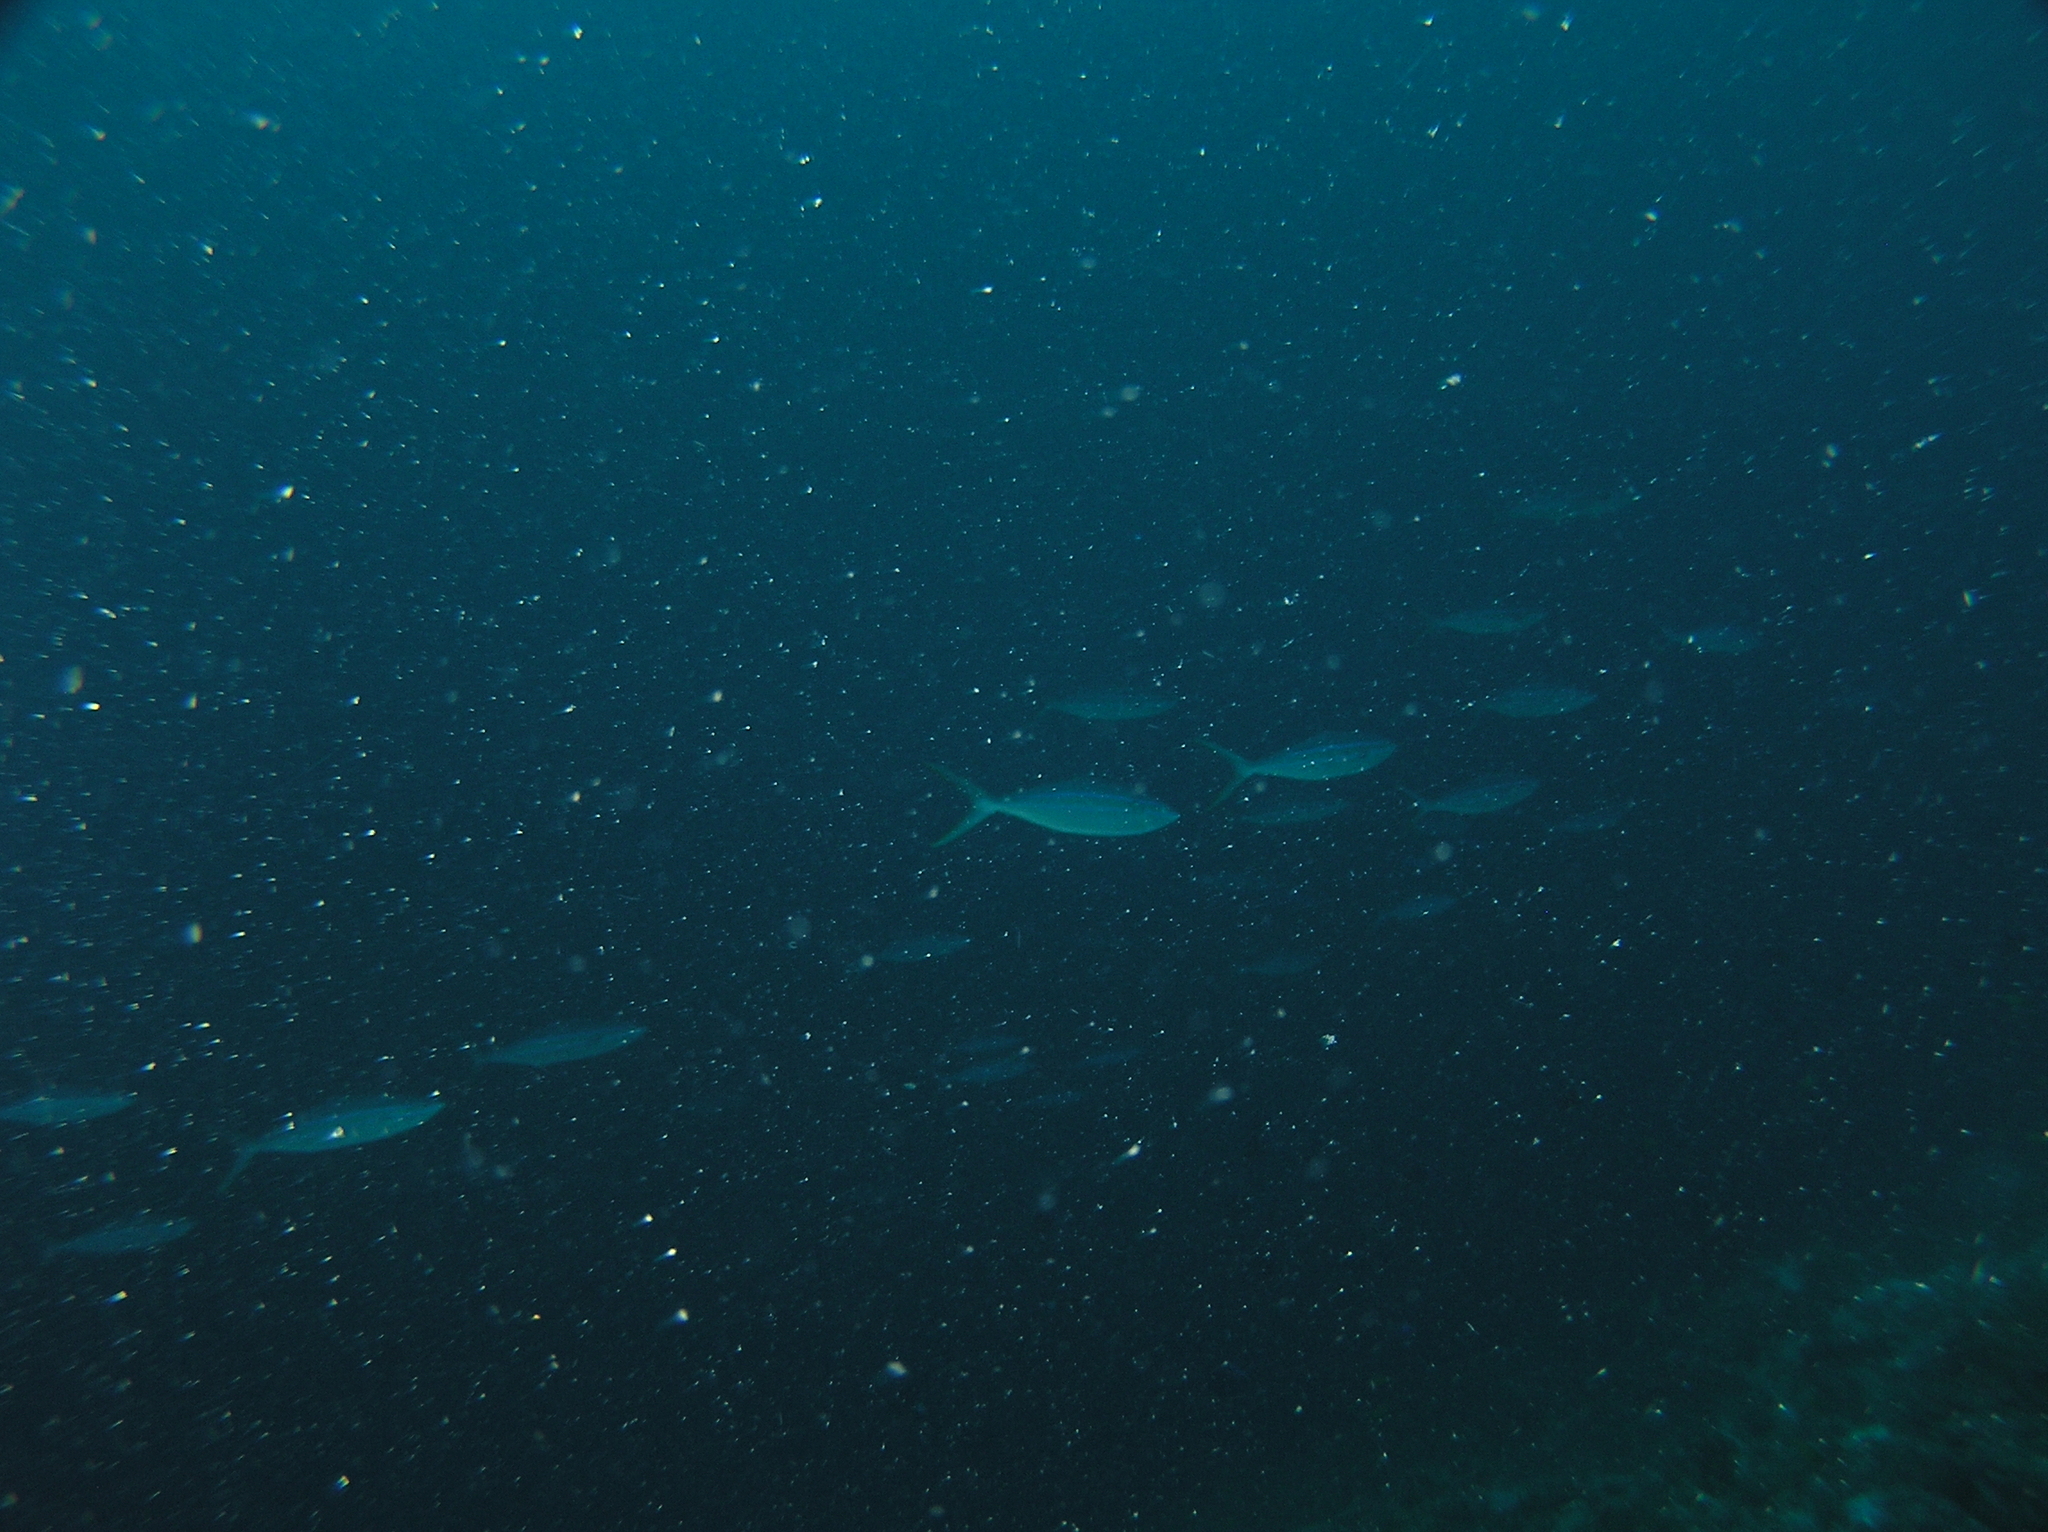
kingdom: Animalia
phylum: Chordata
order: Perciformes
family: Carangidae
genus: Elagatis
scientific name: Elagatis bipinnulata
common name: Rainbow runner
